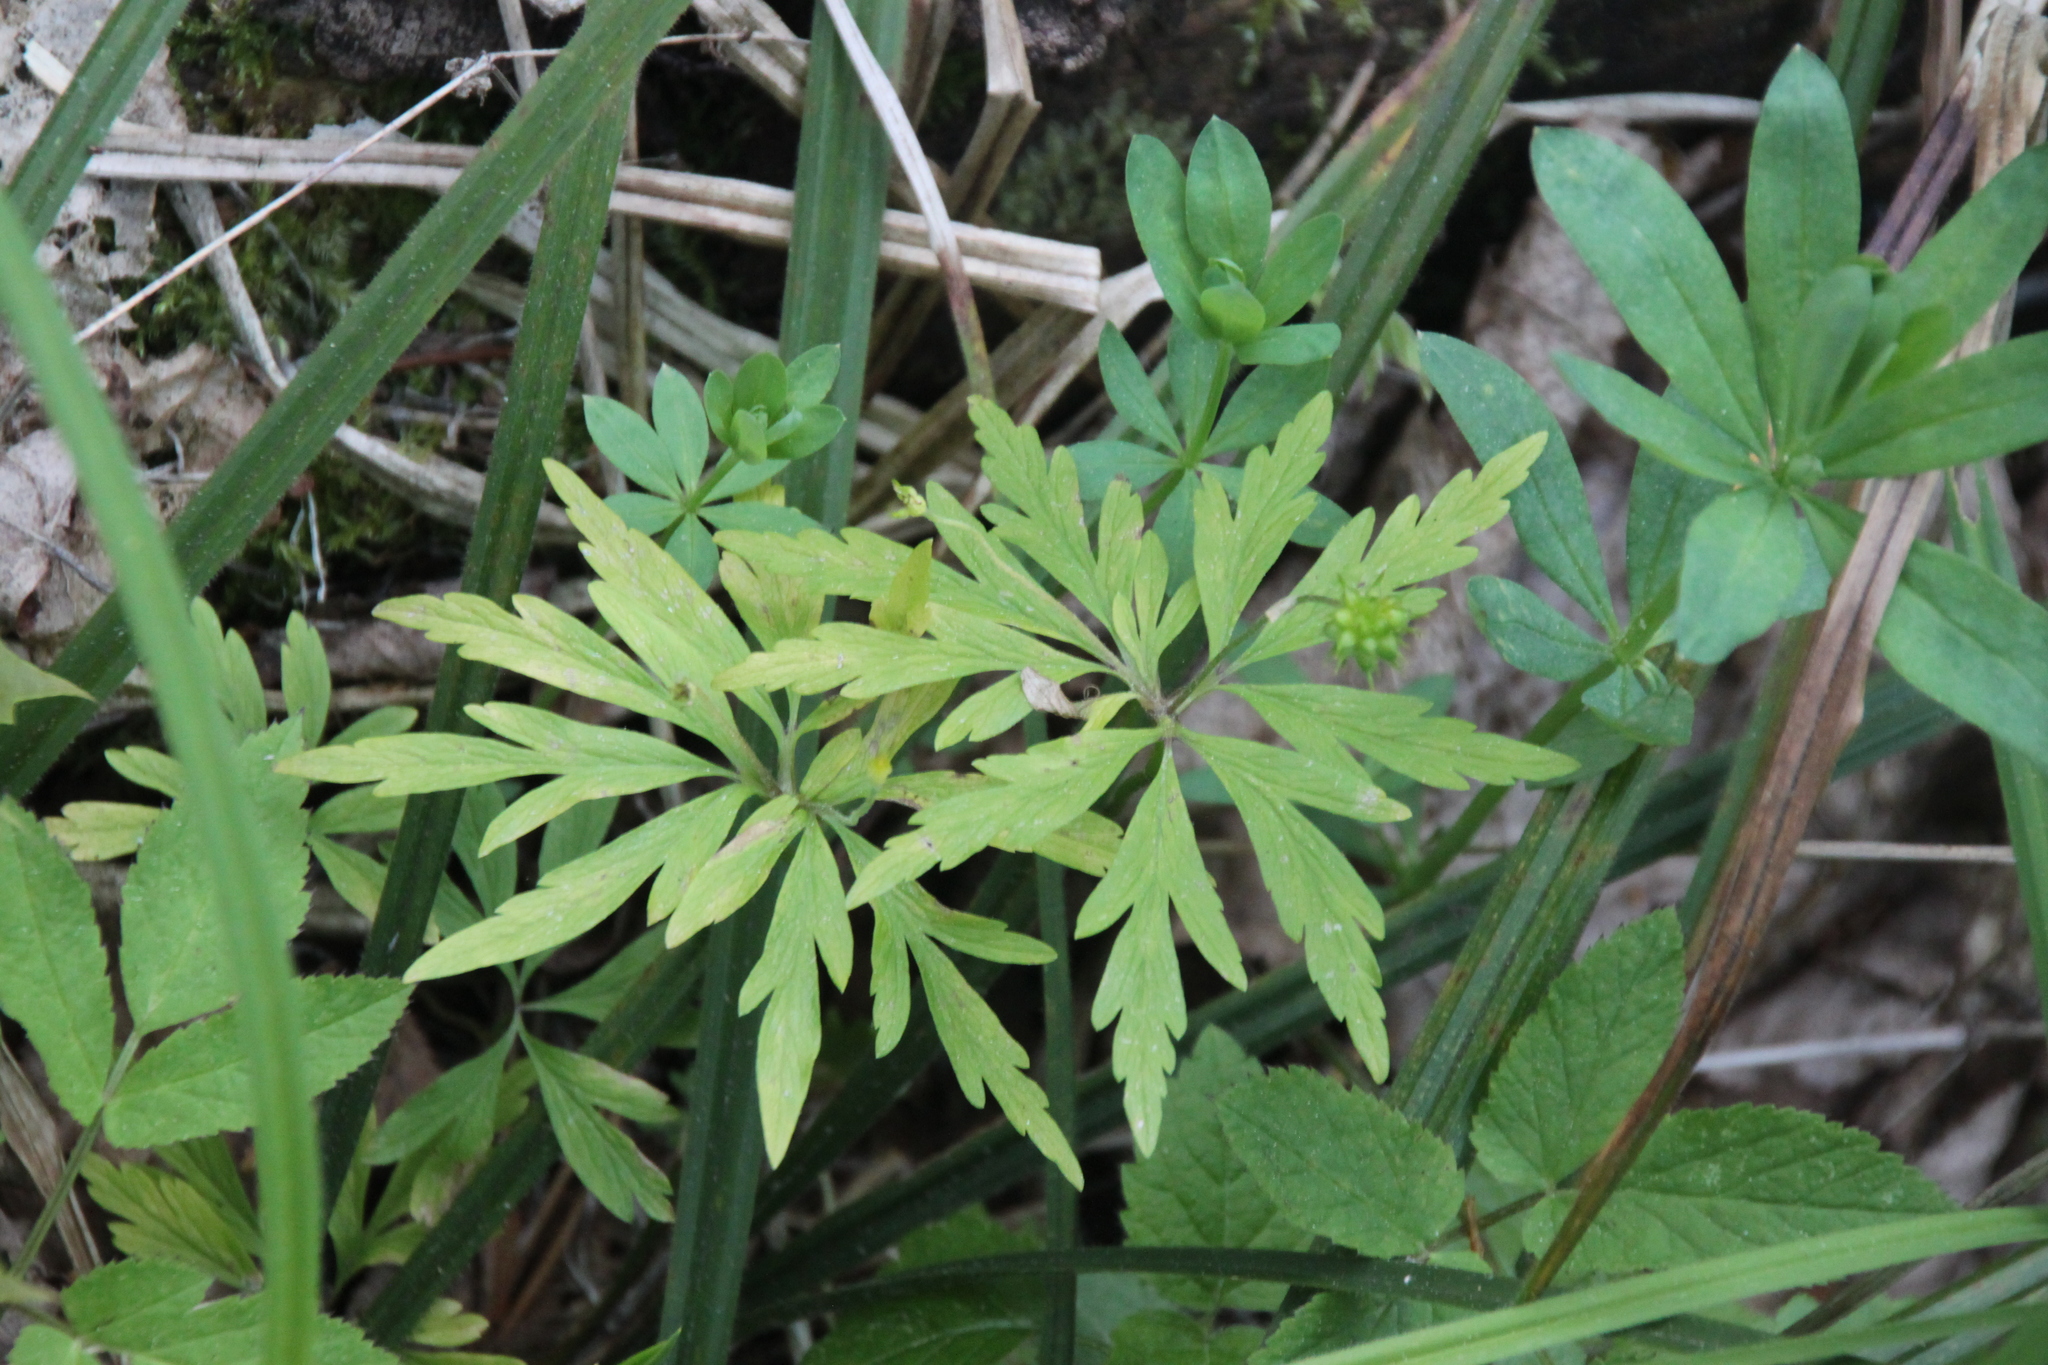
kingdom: Plantae
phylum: Tracheophyta
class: Magnoliopsida
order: Ranunculales
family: Ranunculaceae
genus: Anemone
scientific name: Anemone ranunculoides
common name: Yellow anemone
